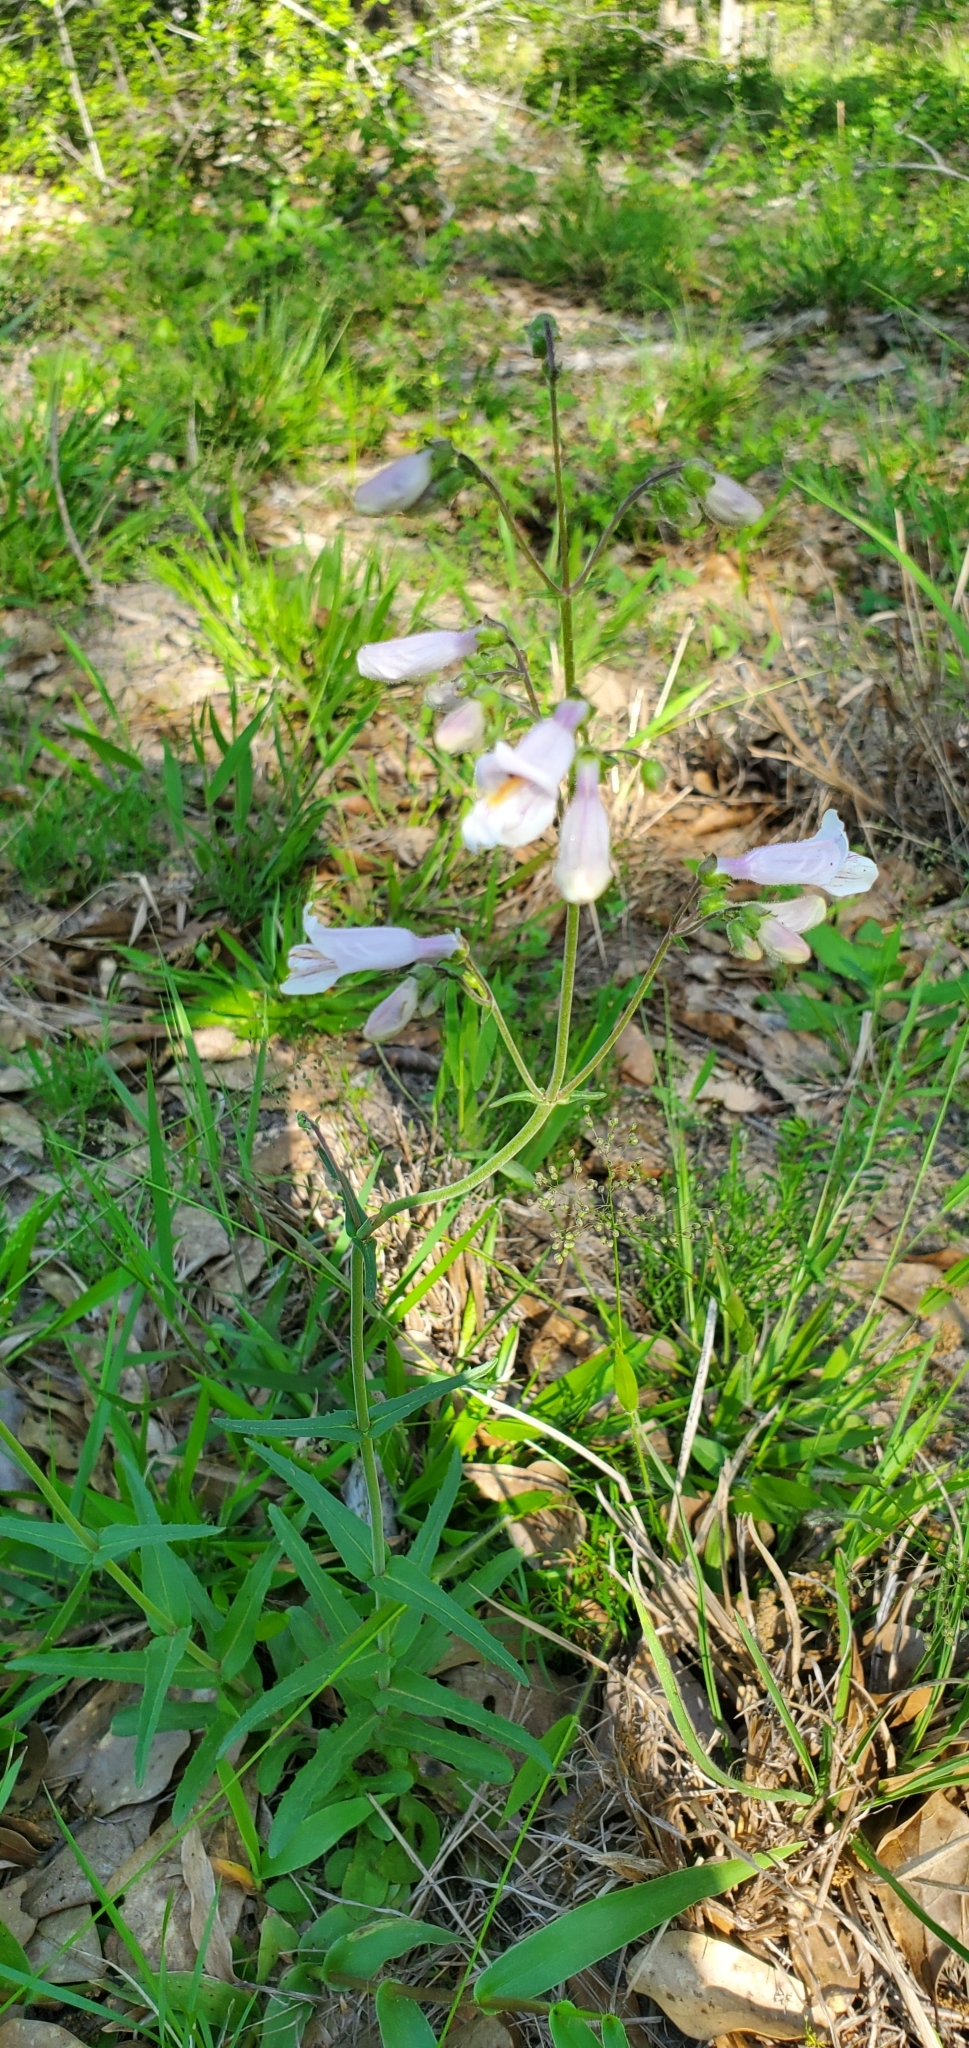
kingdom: Plantae
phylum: Tracheophyta
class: Magnoliopsida
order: Lamiales
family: Plantaginaceae
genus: Penstemon
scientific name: Penstemon laxiflorus
